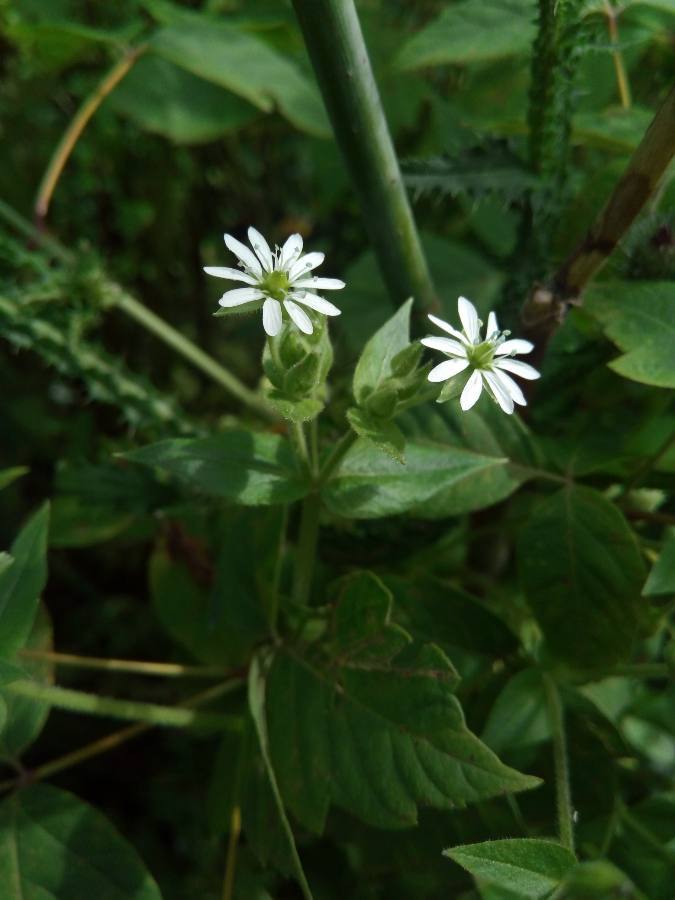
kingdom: Plantae
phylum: Tracheophyta
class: Magnoliopsida
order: Caryophyllales
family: Caryophyllaceae
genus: Stellaria
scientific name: Stellaria aquatica
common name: Water chickweed
